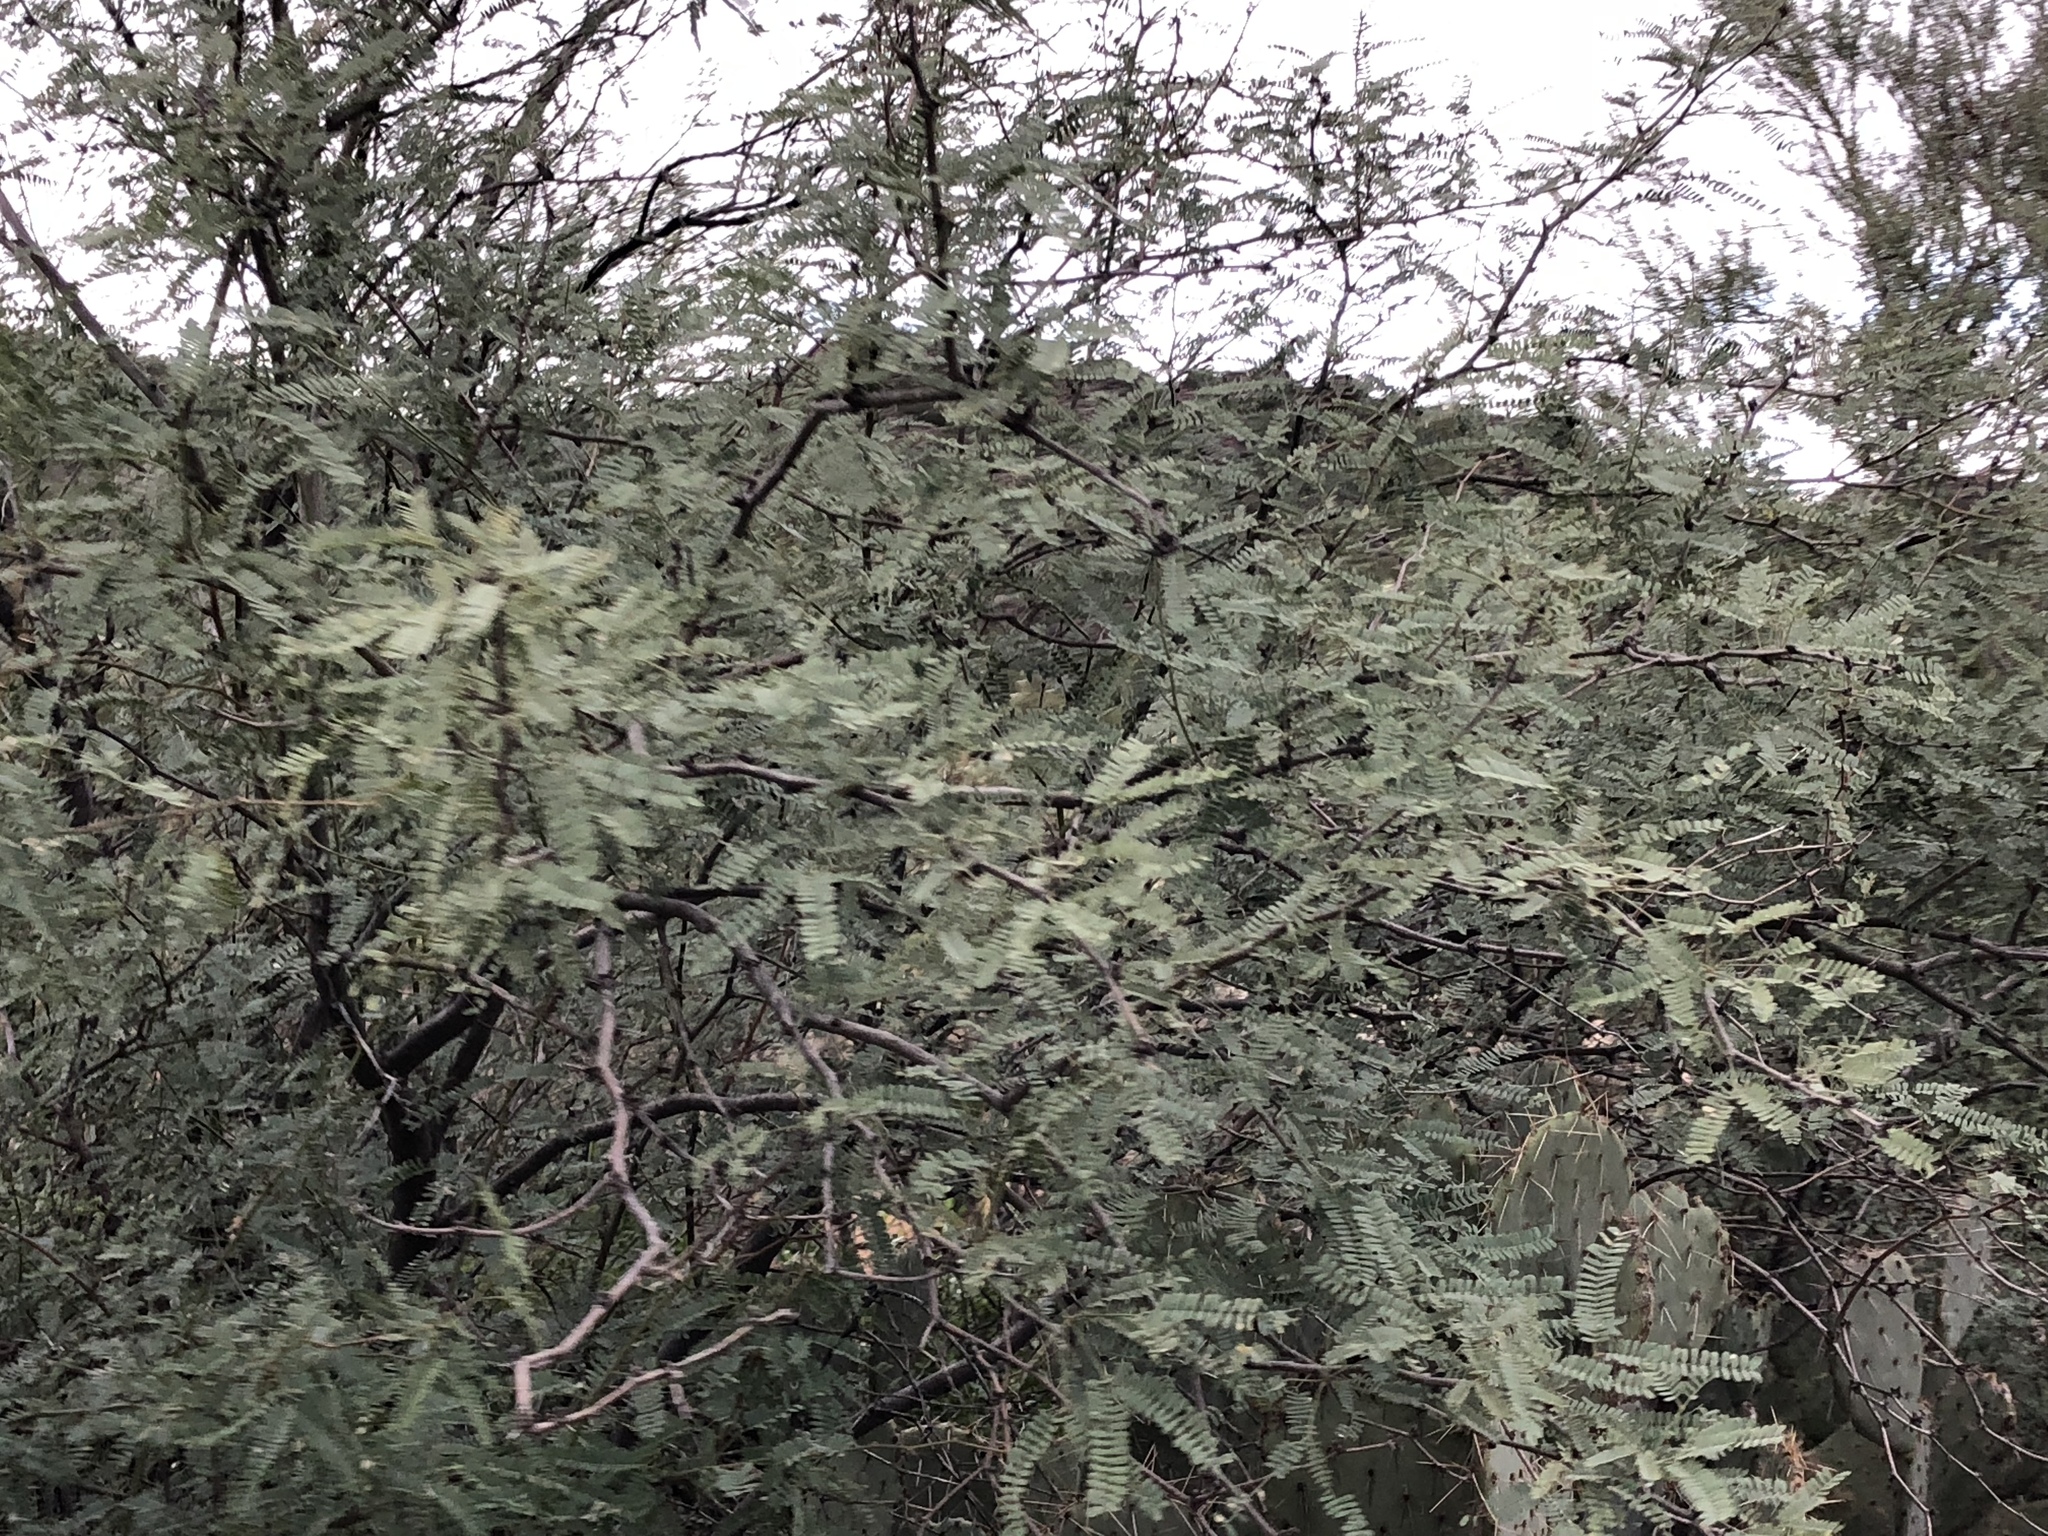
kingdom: Plantae
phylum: Tracheophyta
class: Magnoliopsida
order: Fabales
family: Fabaceae
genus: Prosopis
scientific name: Prosopis velutina
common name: Velvet mesquite
